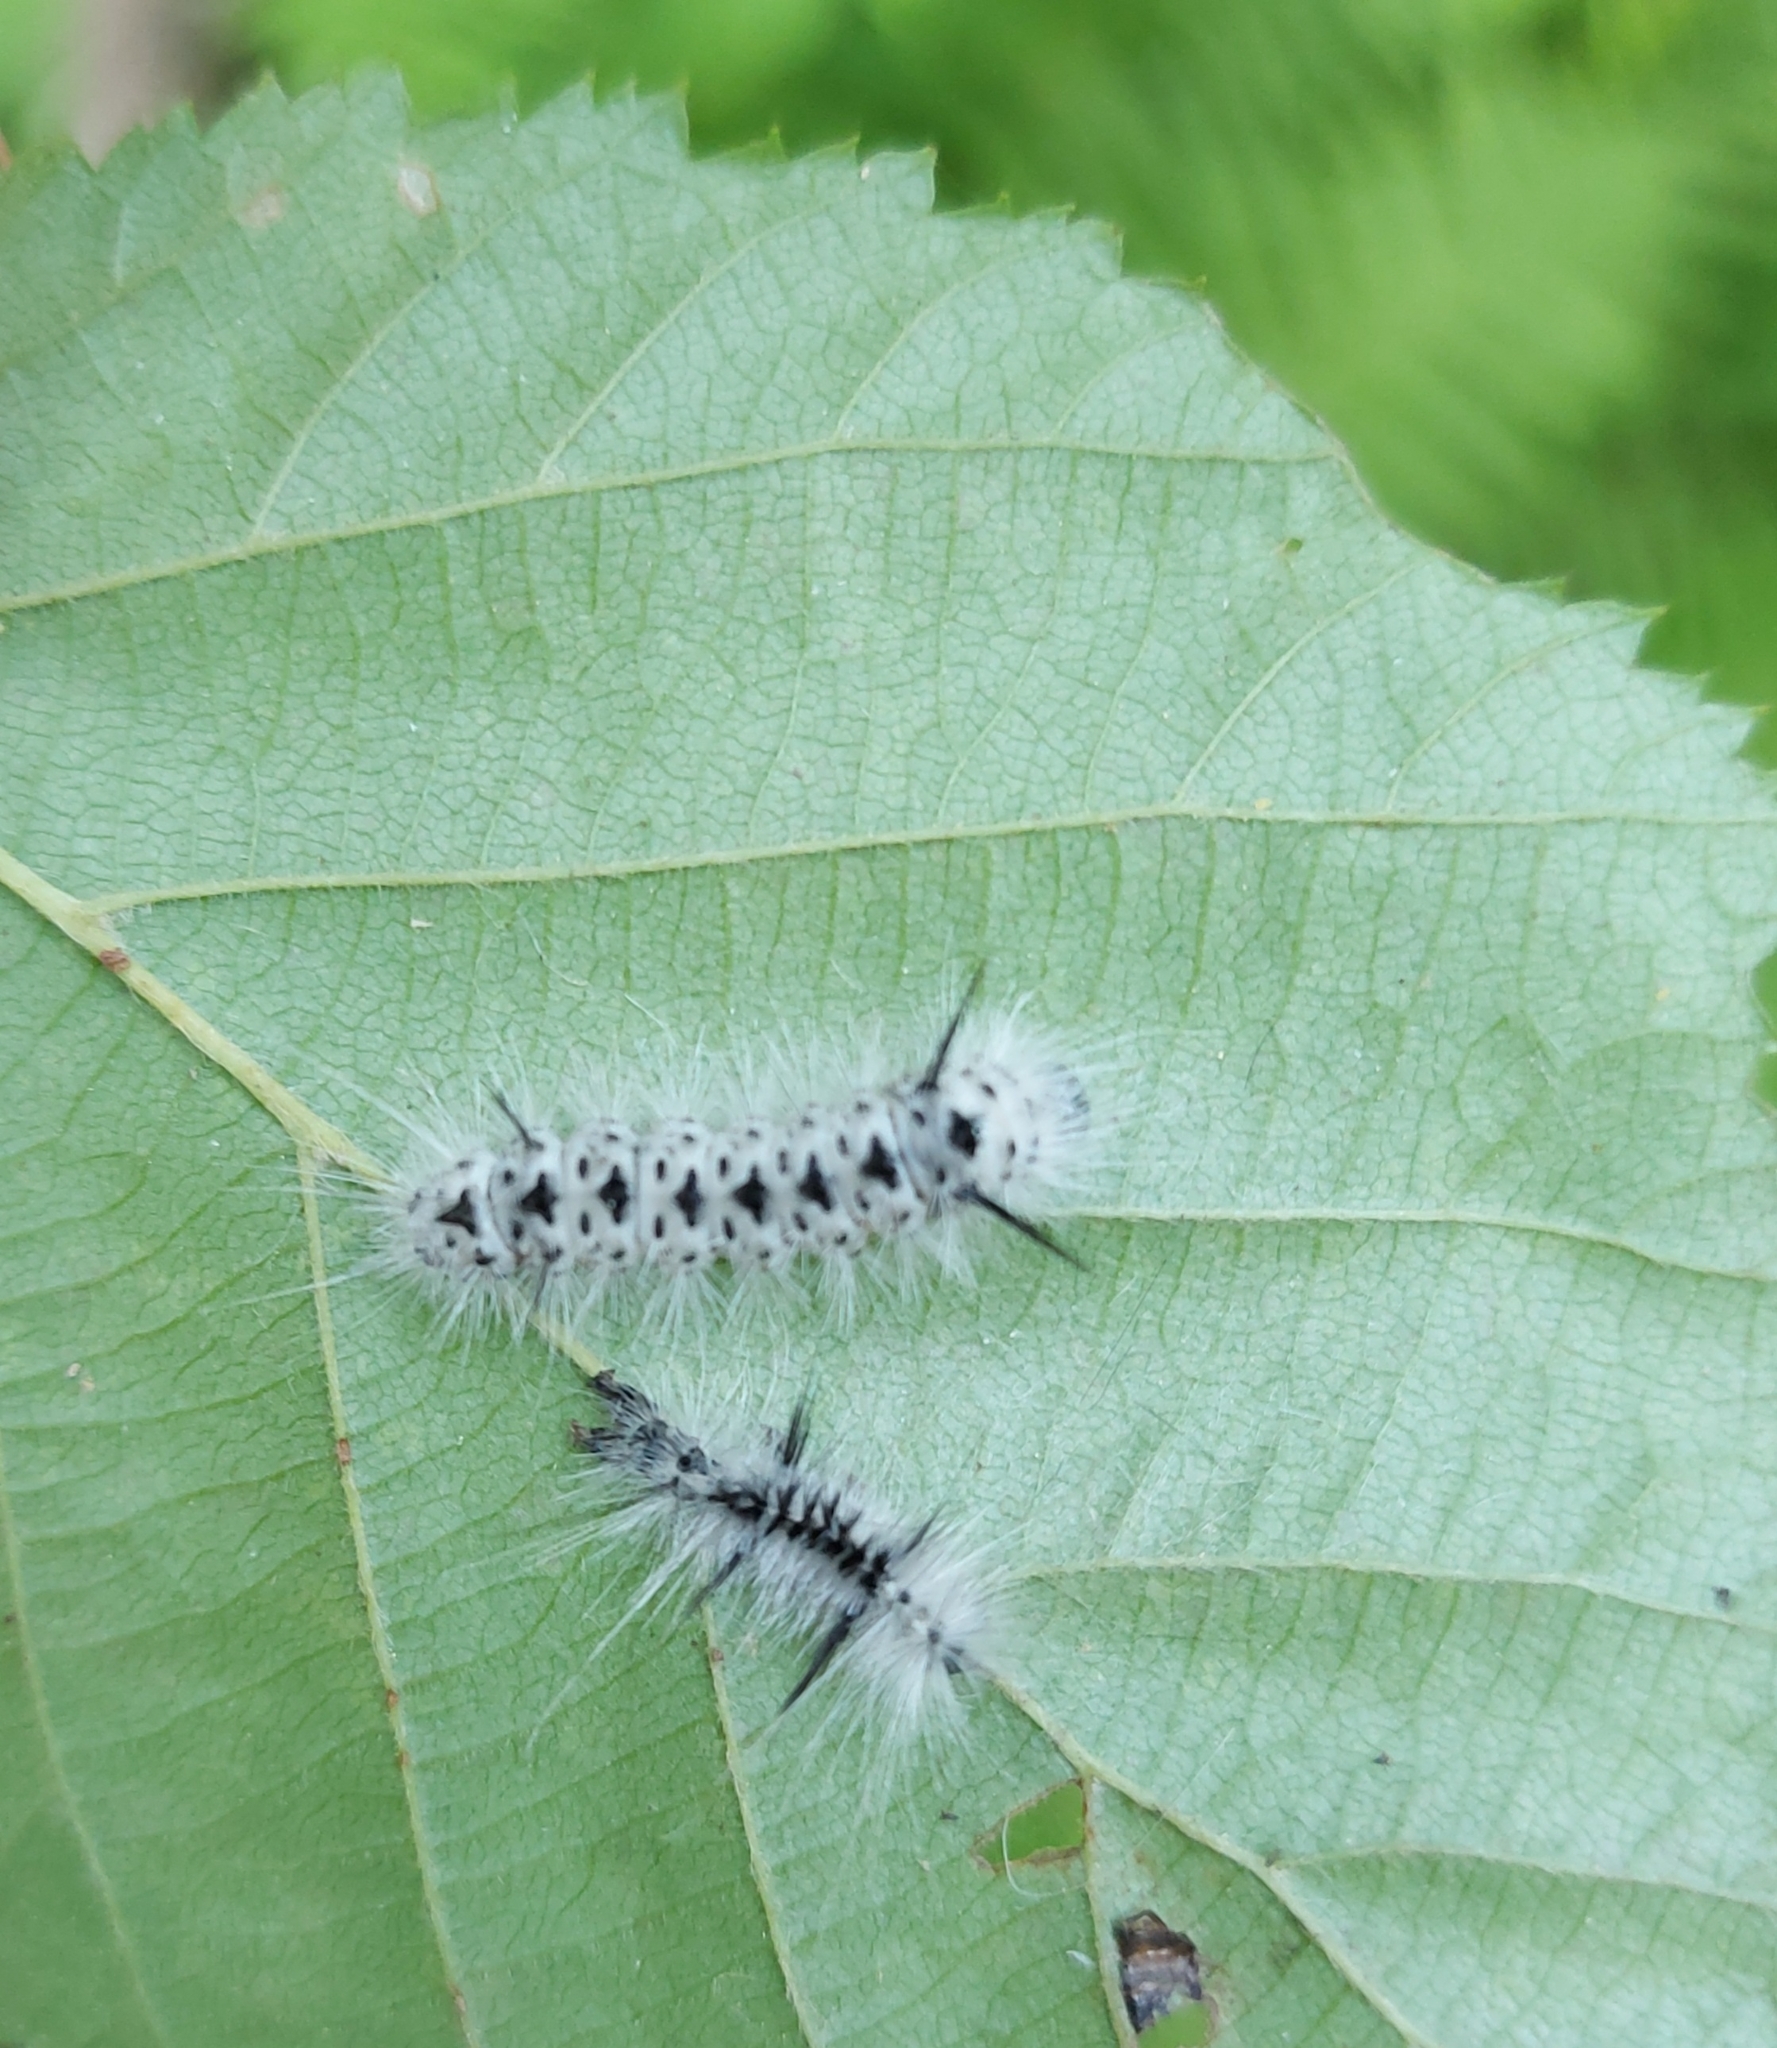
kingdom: Animalia
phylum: Arthropoda
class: Insecta
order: Lepidoptera
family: Erebidae
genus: Lophocampa
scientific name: Lophocampa caryae
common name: Hickory tussock moth
